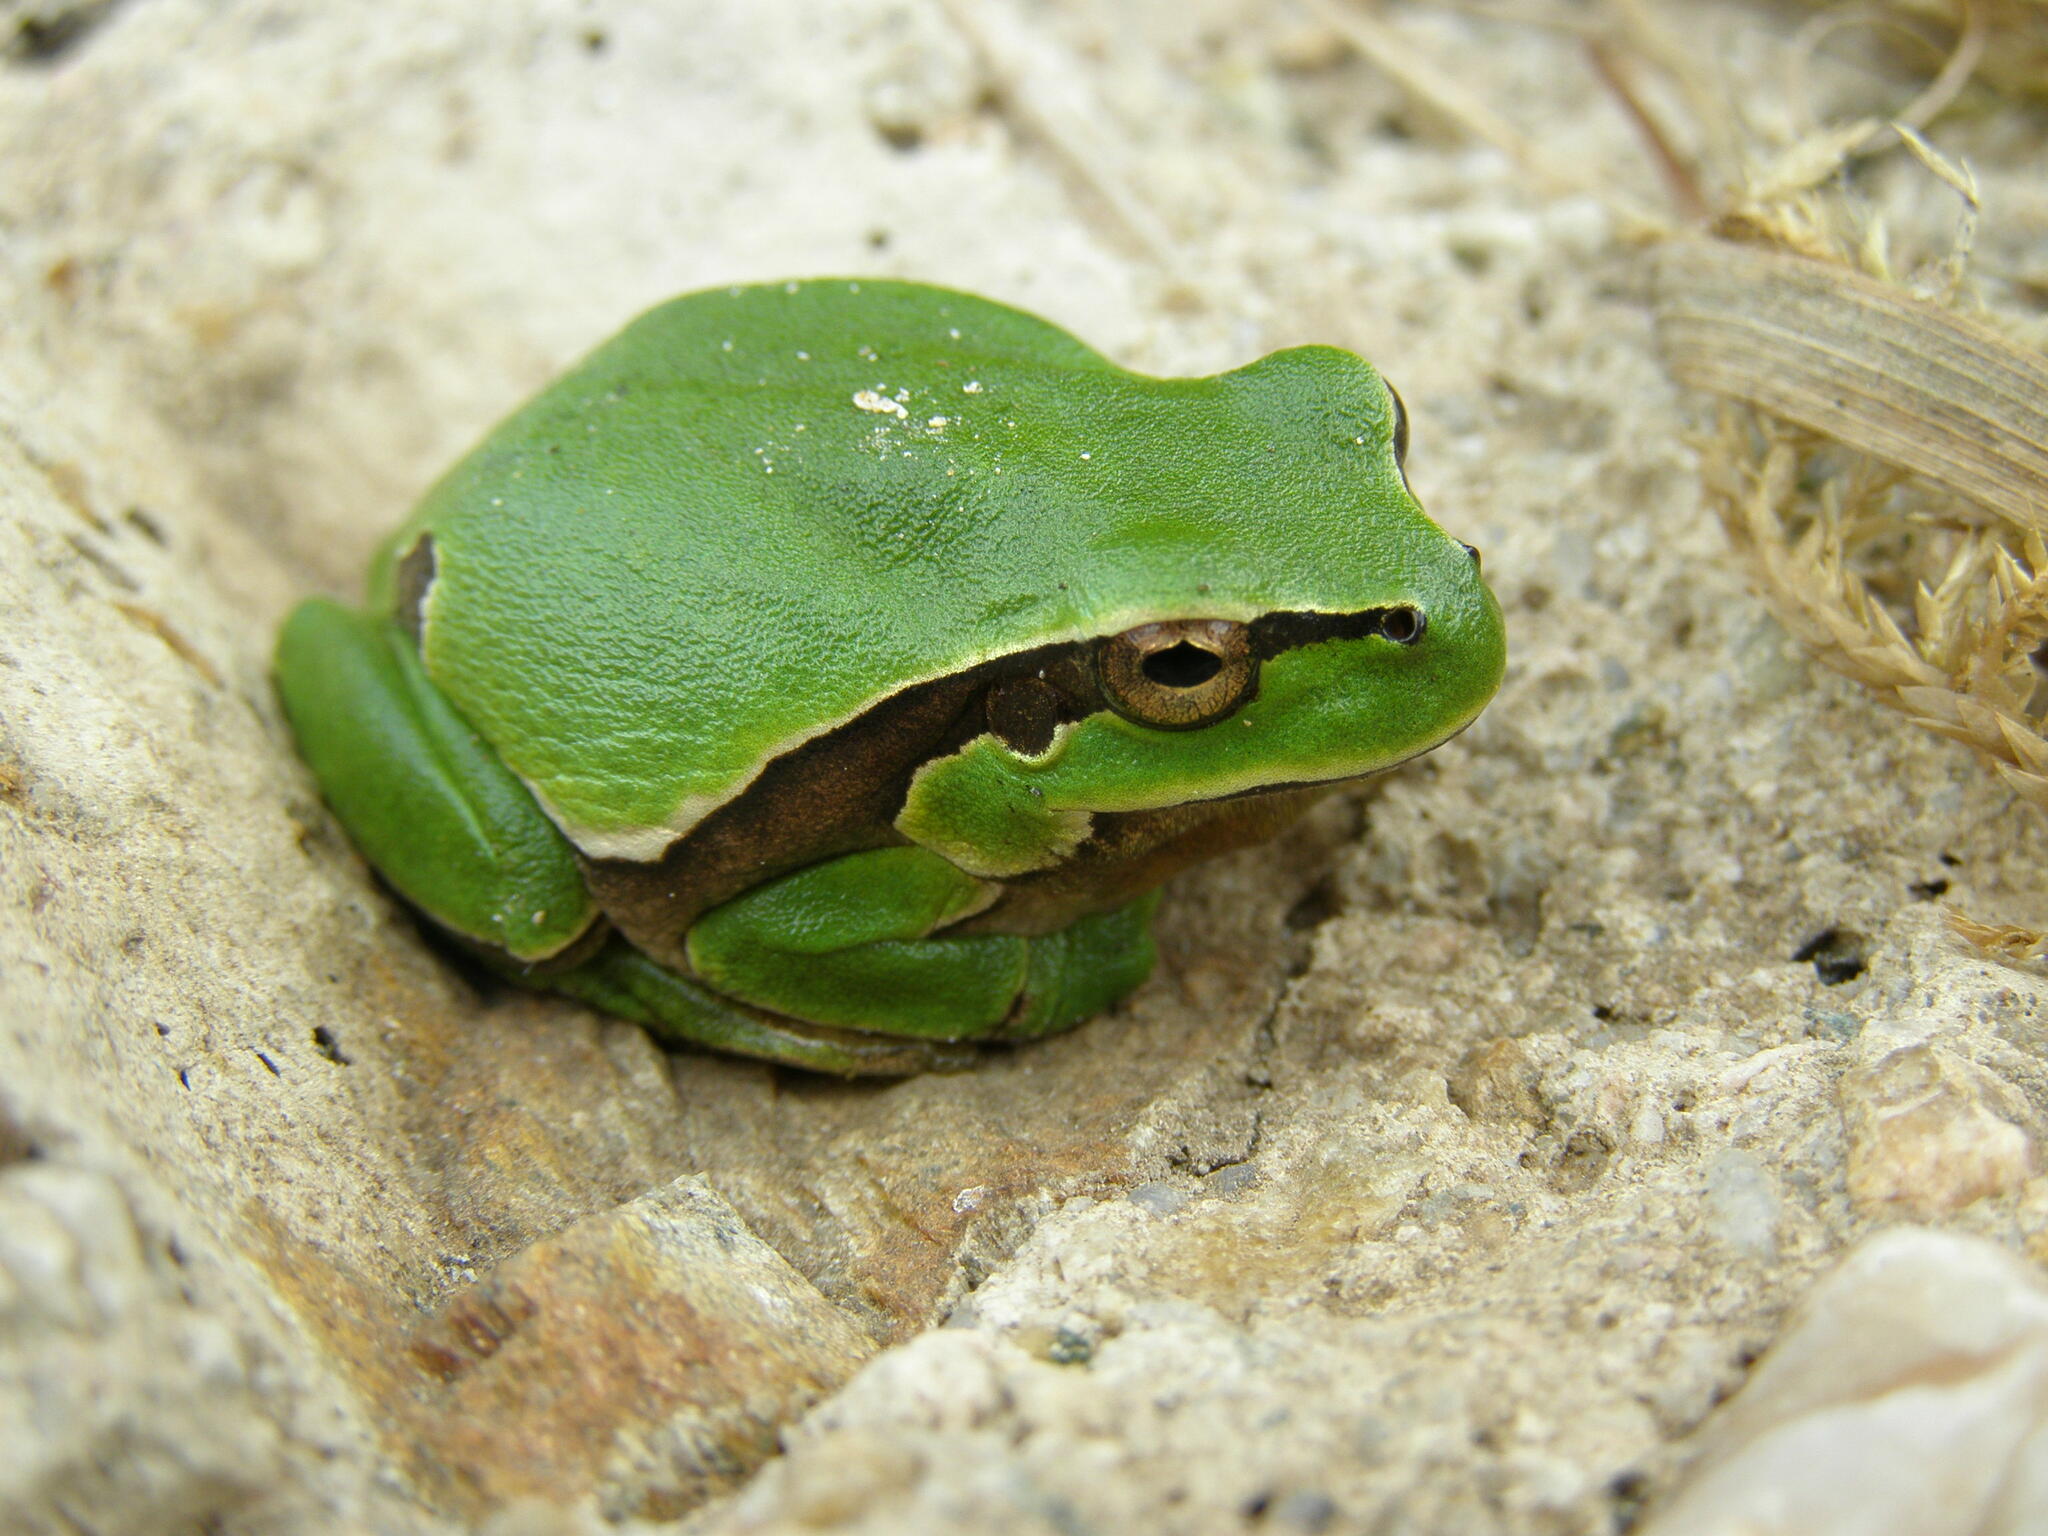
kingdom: Animalia
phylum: Chordata
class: Amphibia
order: Anura
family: Hylidae
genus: Hyla
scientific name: Hyla molleri
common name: Iberian tree frog
